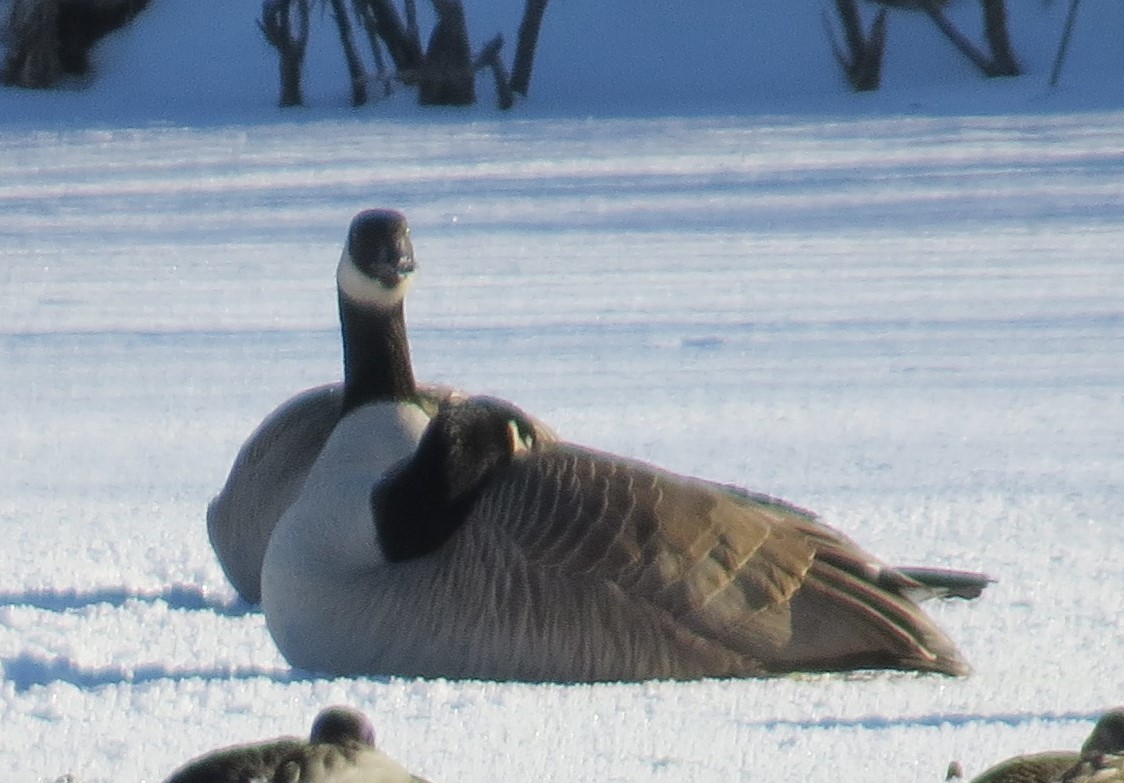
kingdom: Animalia
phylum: Chordata
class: Aves
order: Anseriformes
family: Anatidae
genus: Branta
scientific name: Branta canadensis
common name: Canada goose
